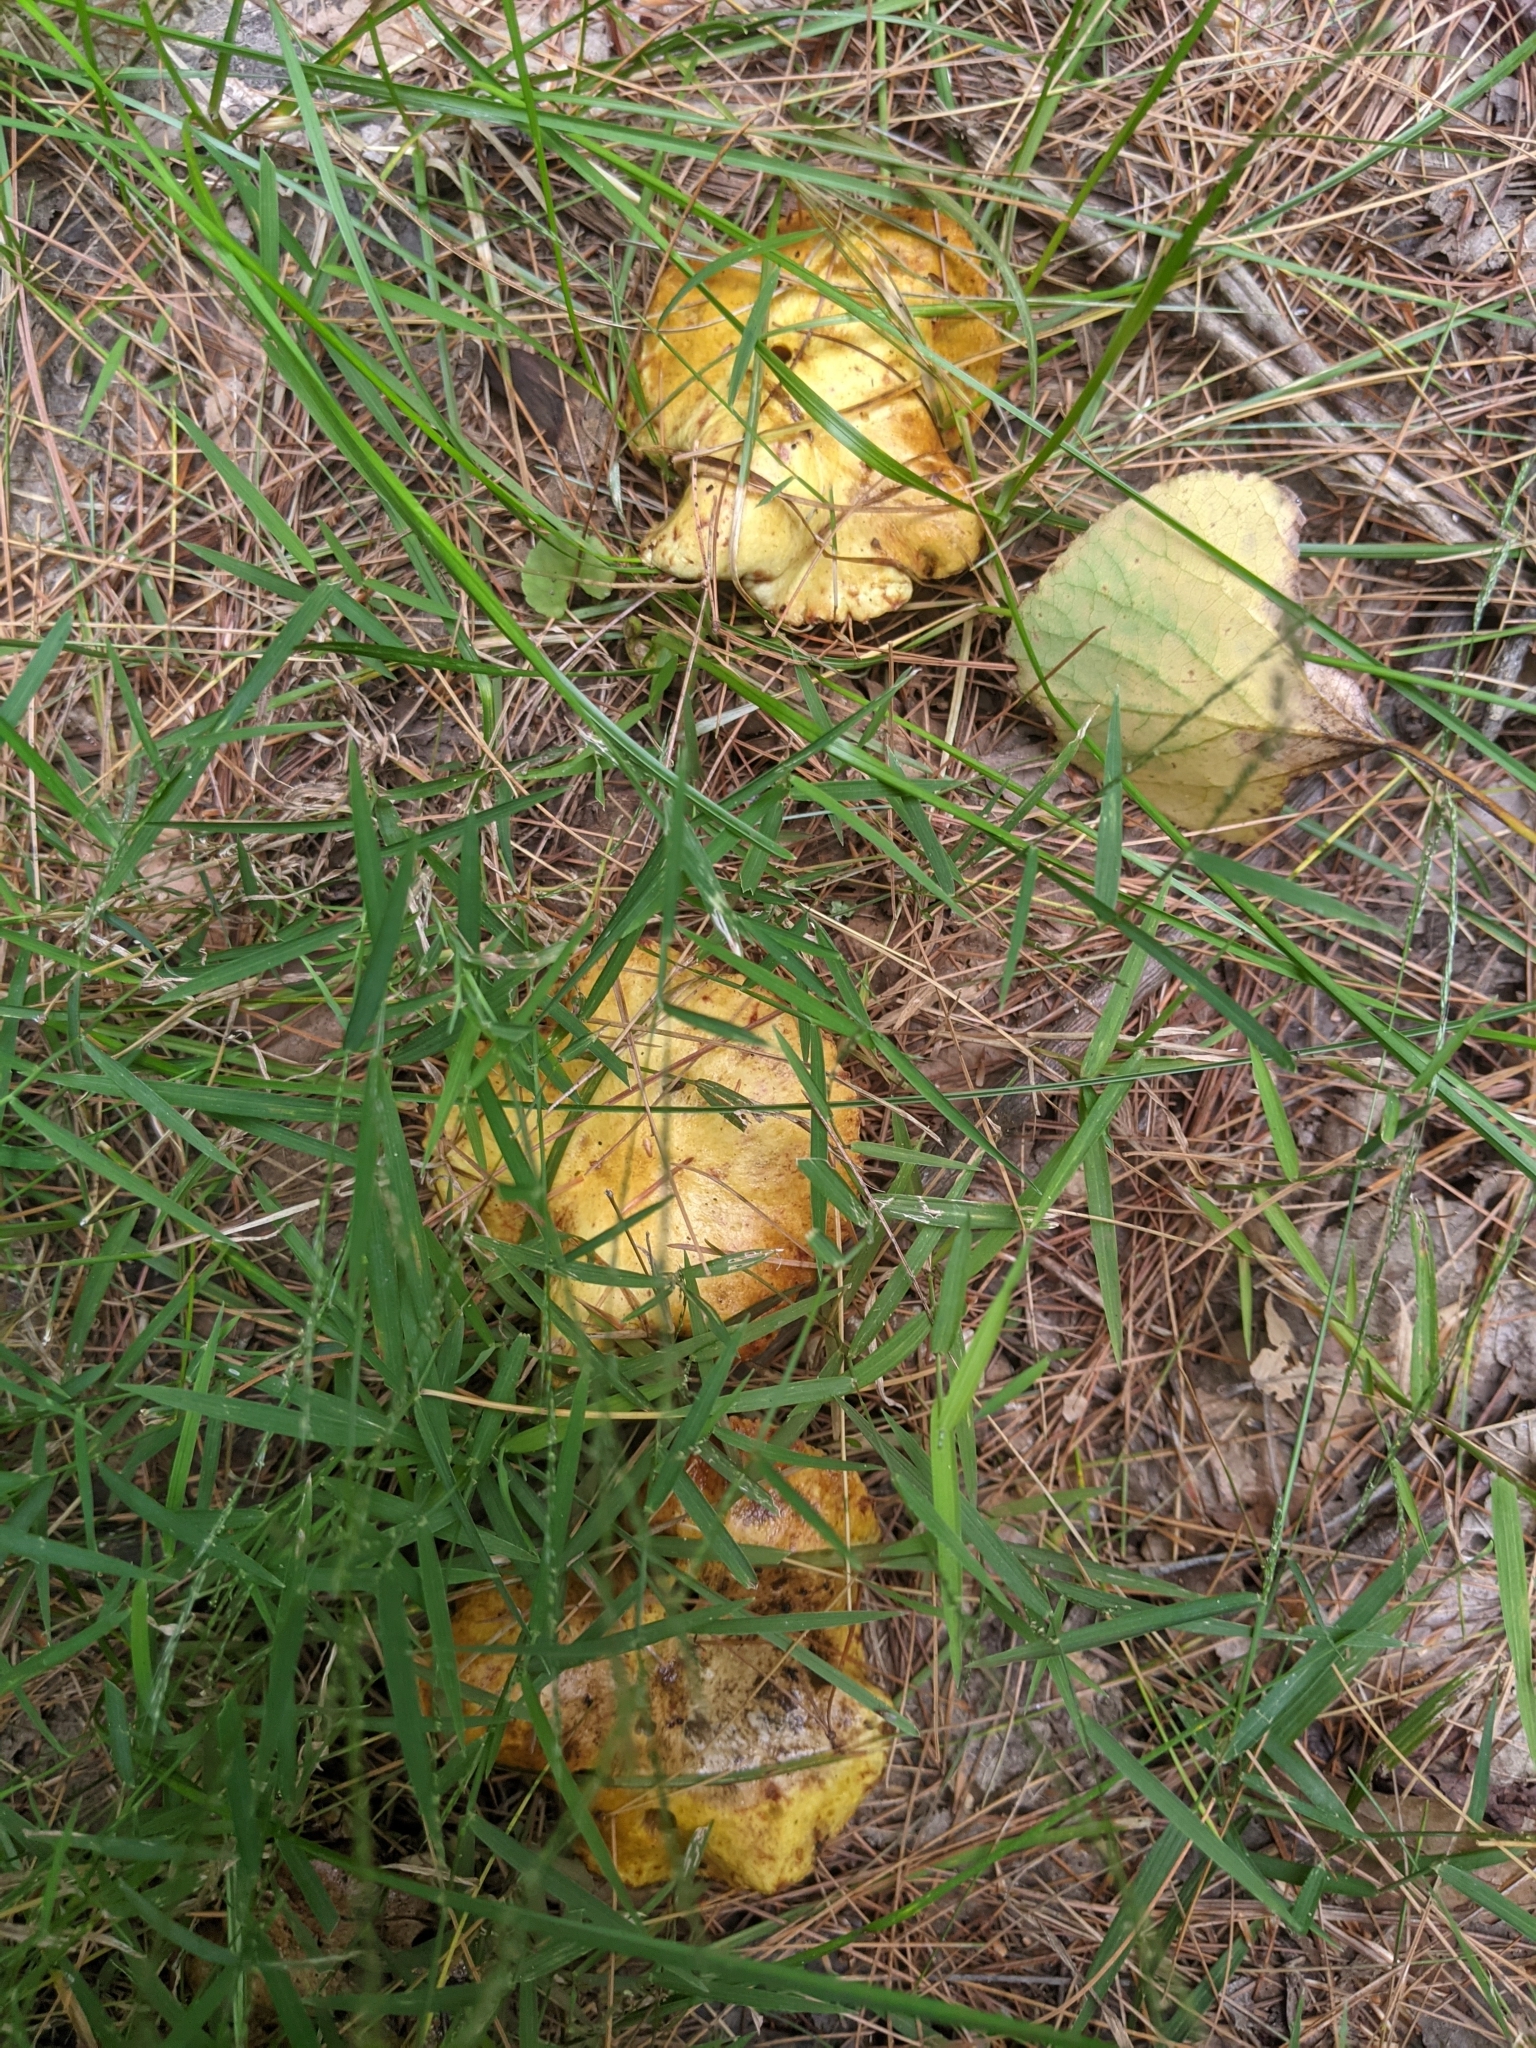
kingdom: Fungi
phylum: Basidiomycota
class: Agaricomycetes
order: Boletales
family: Suillaceae
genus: Suillus
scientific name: Suillus americanus
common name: Chicken fat mushroom
